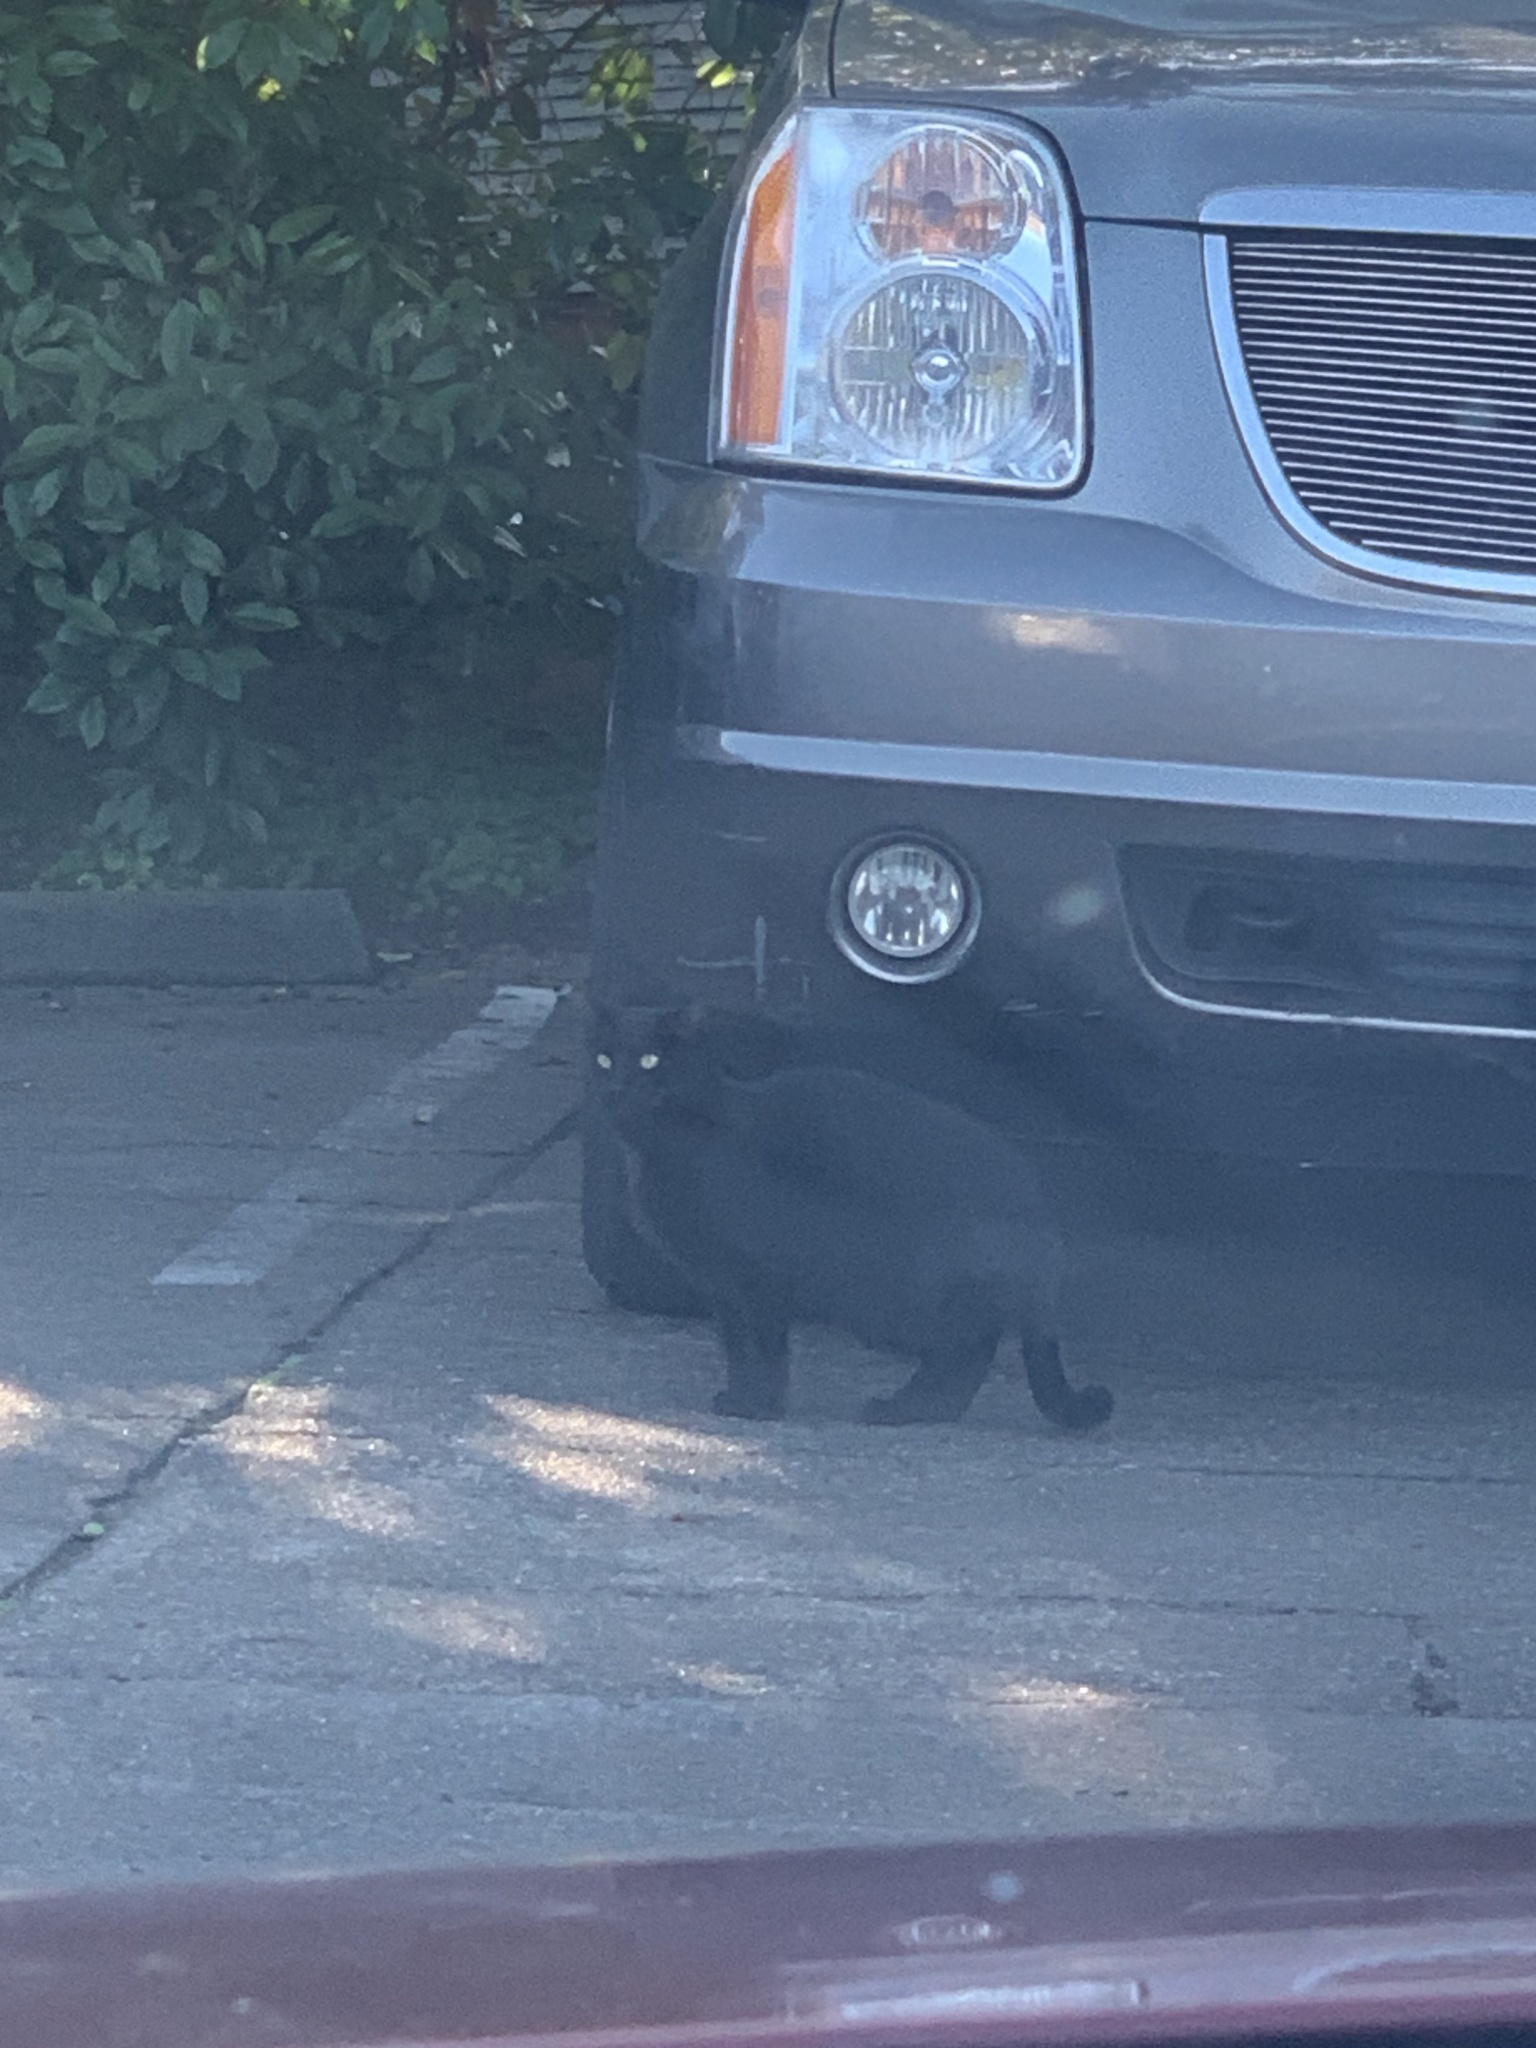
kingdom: Animalia
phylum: Chordata
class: Mammalia
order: Carnivora
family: Felidae
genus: Felis
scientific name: Felis catus
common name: Domestic cat
